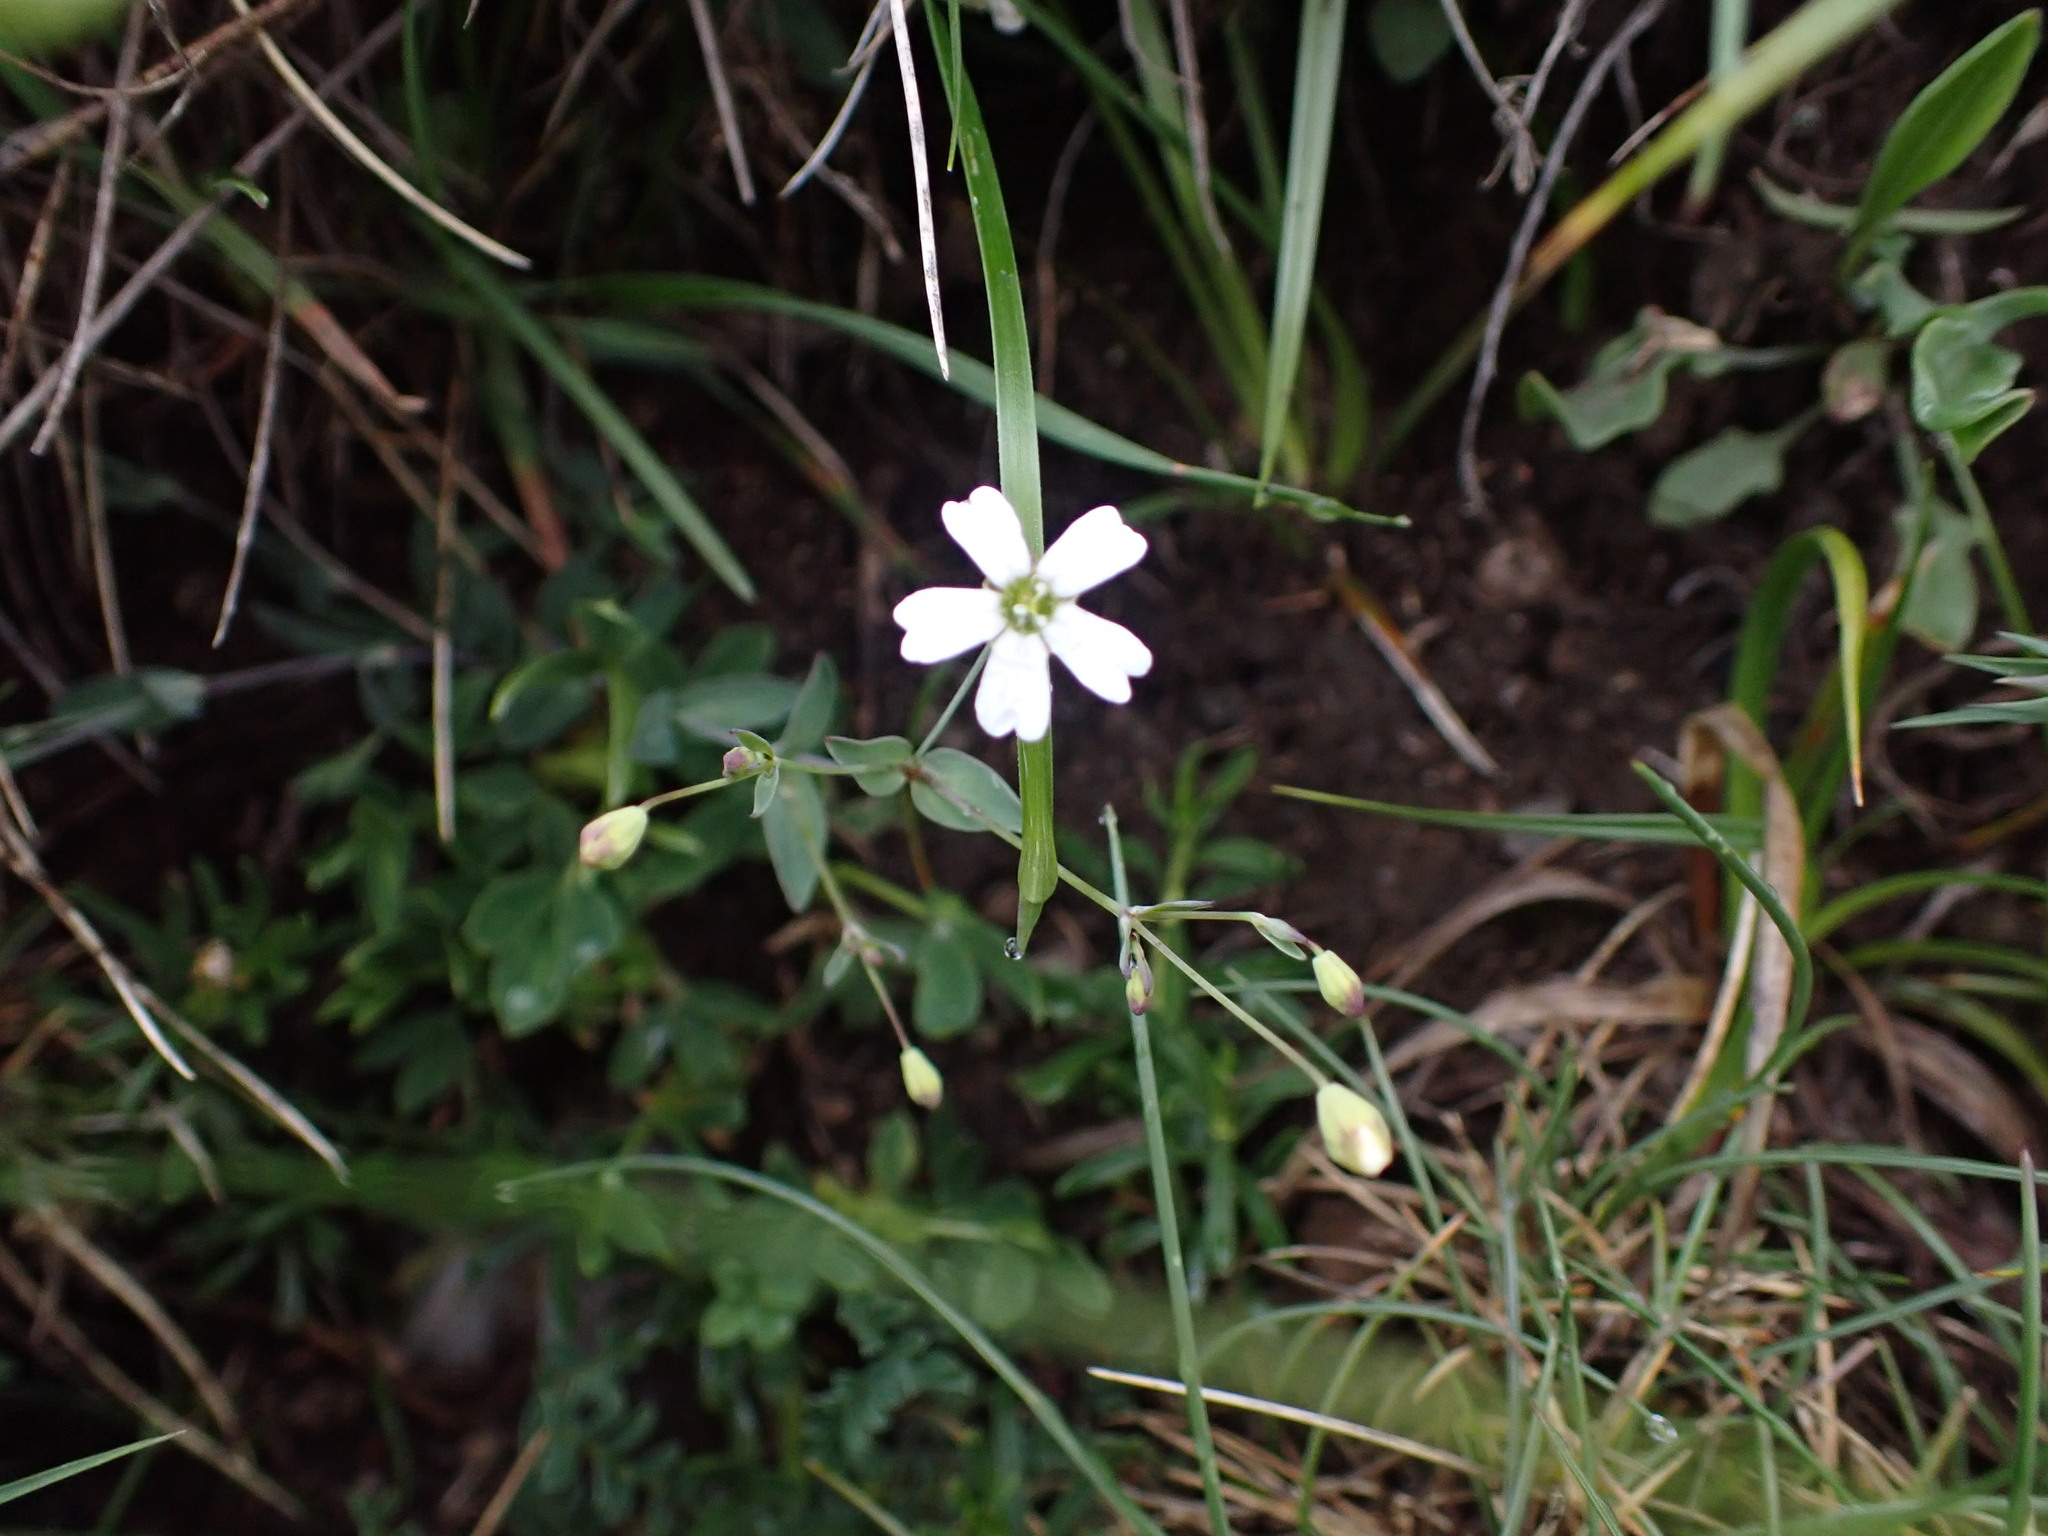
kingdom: Plantae
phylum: Tracheophyta
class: Magnoliopsida
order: Caryophyllales
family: Caryophyllaceae
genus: Silene
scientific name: Silene ciliata
